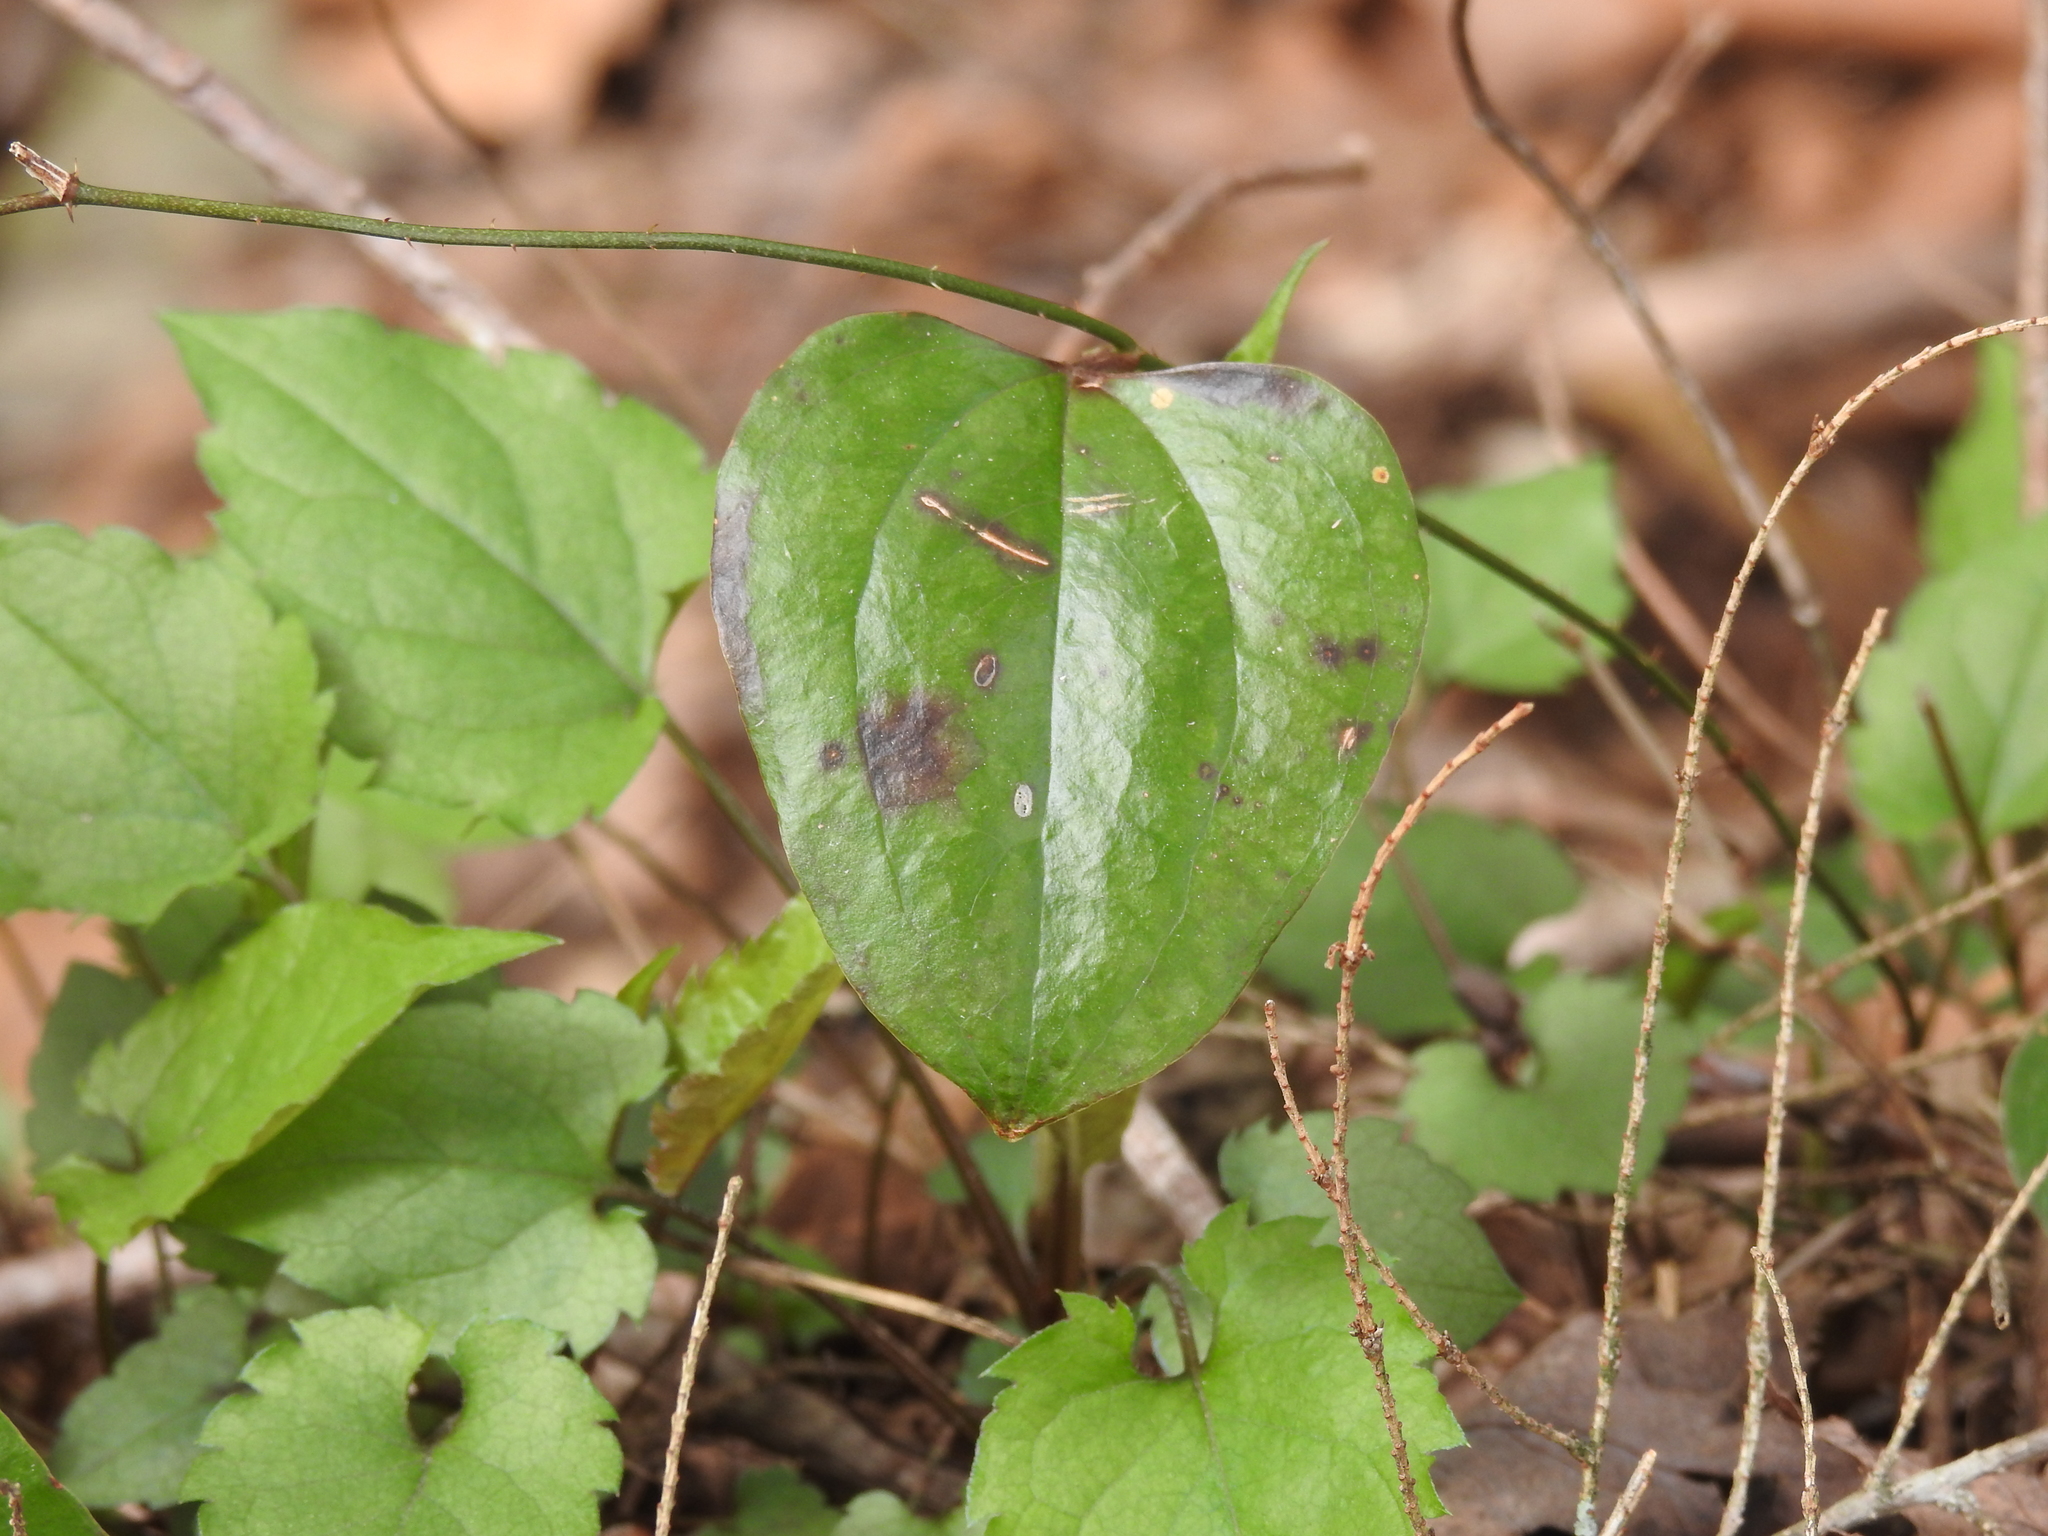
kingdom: Plantae
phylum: Tracheophyta
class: Liliopsida
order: Liliales
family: Smilacaceae
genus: Smilax
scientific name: Smilax glauca
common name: Cat greenbrier
